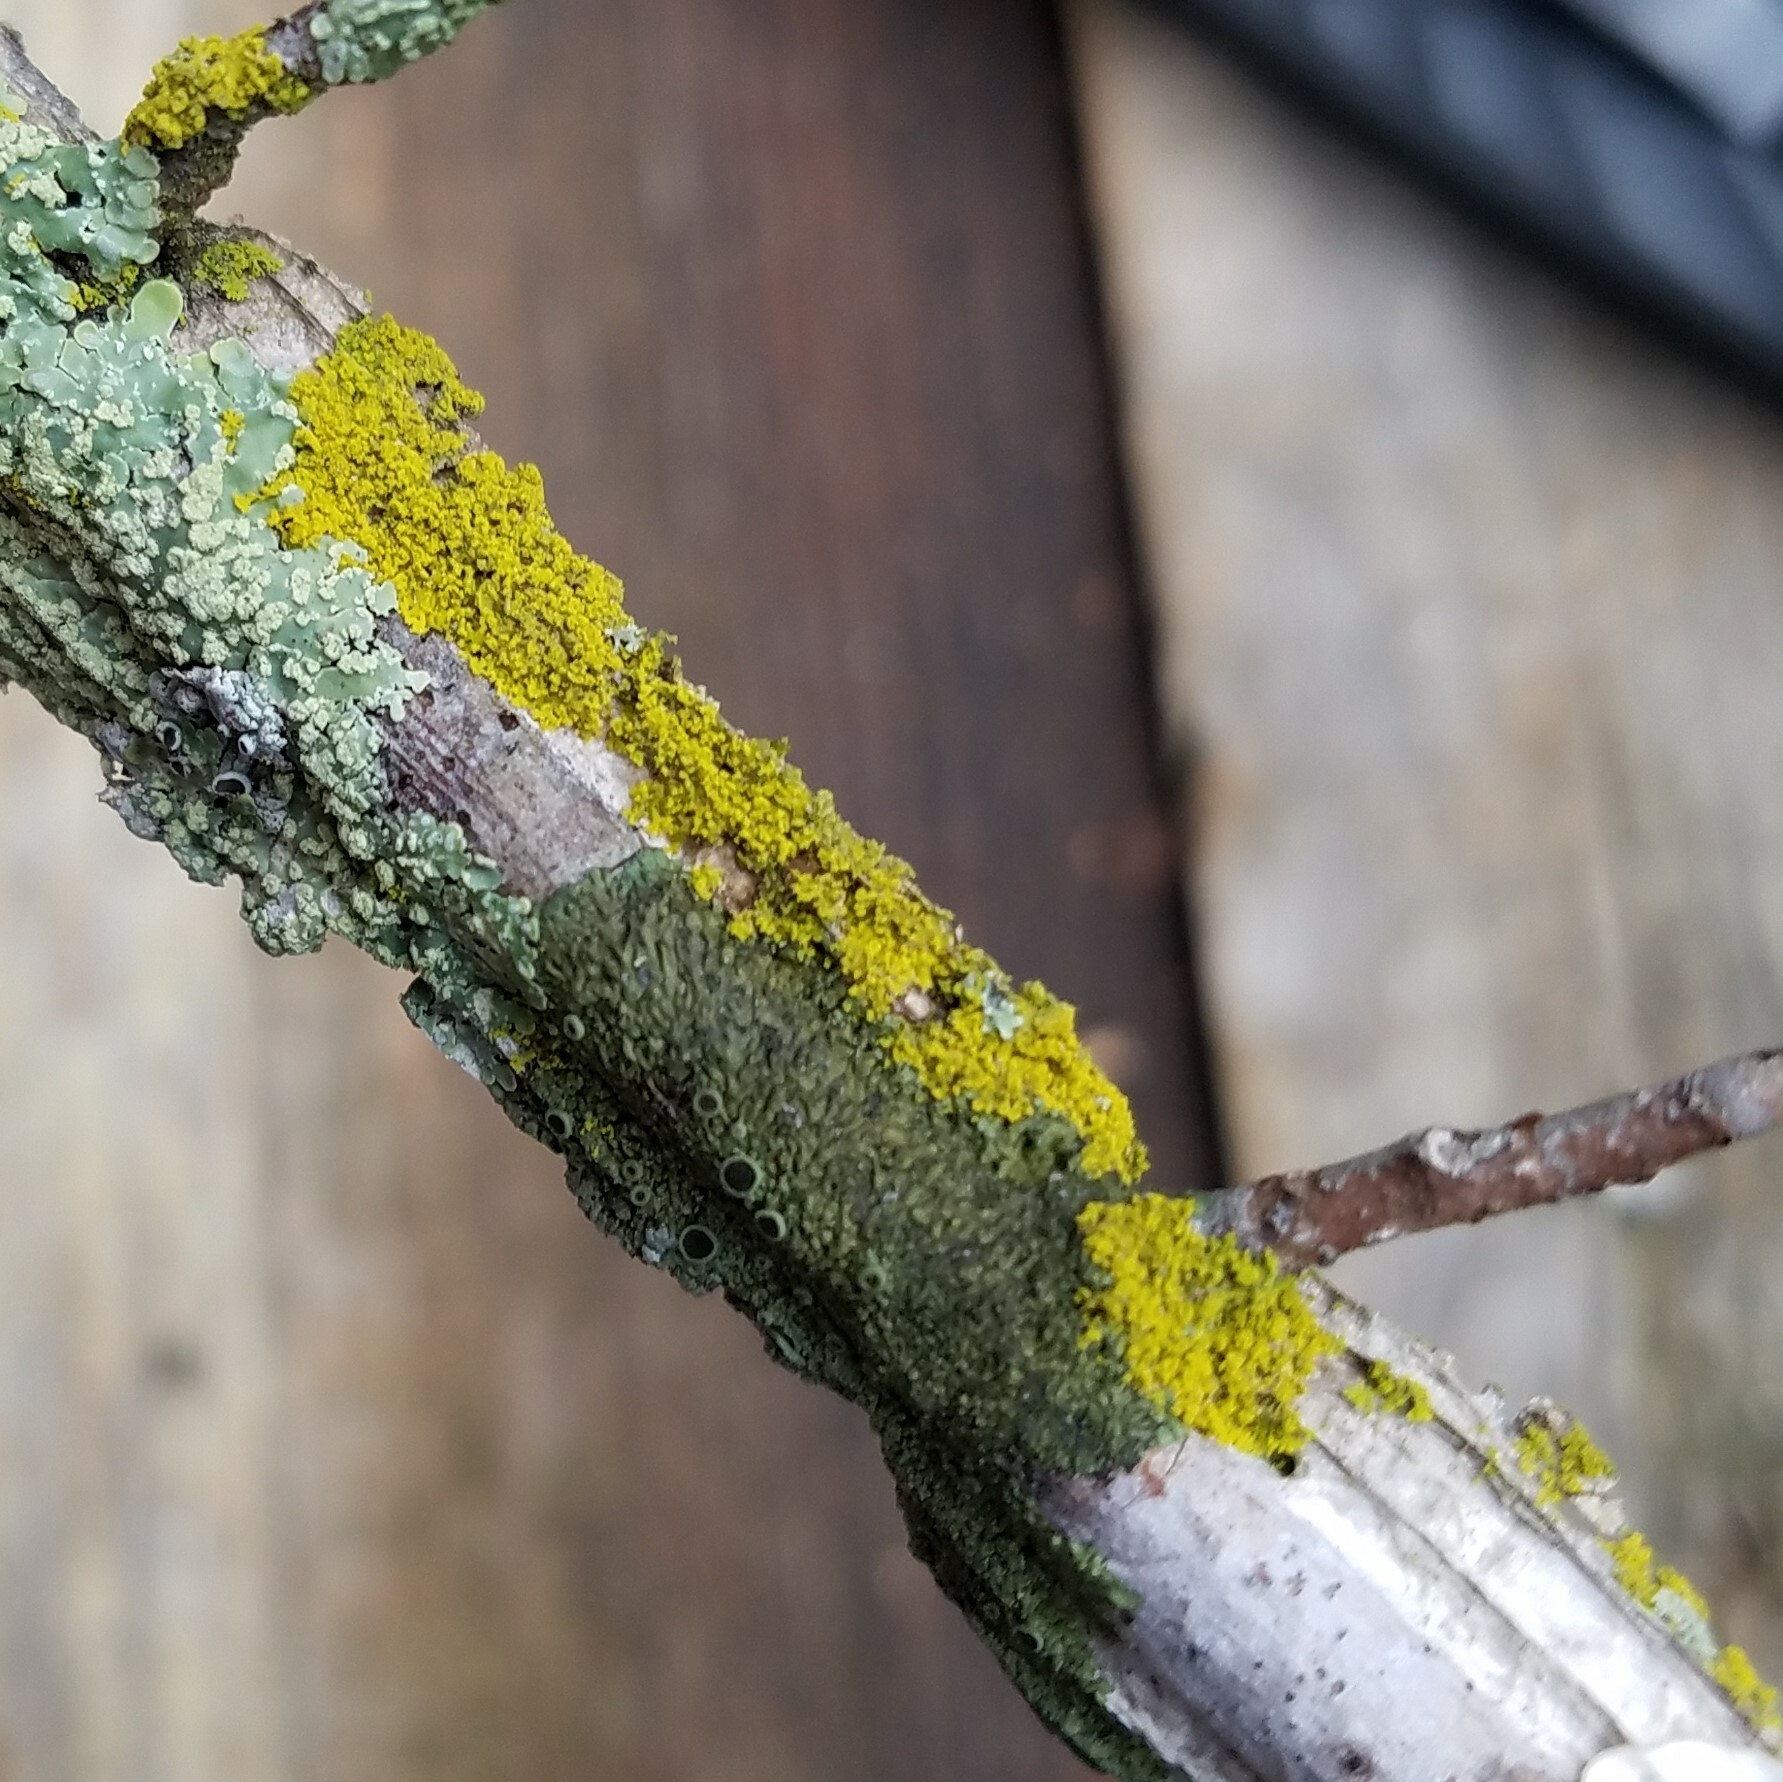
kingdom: Fungi
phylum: Ascomycota
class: Candelariomycetes
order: Candelariales
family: Candelariaceae
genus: Candelaria
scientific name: Candelaria concolor
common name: Candleflame lichen
